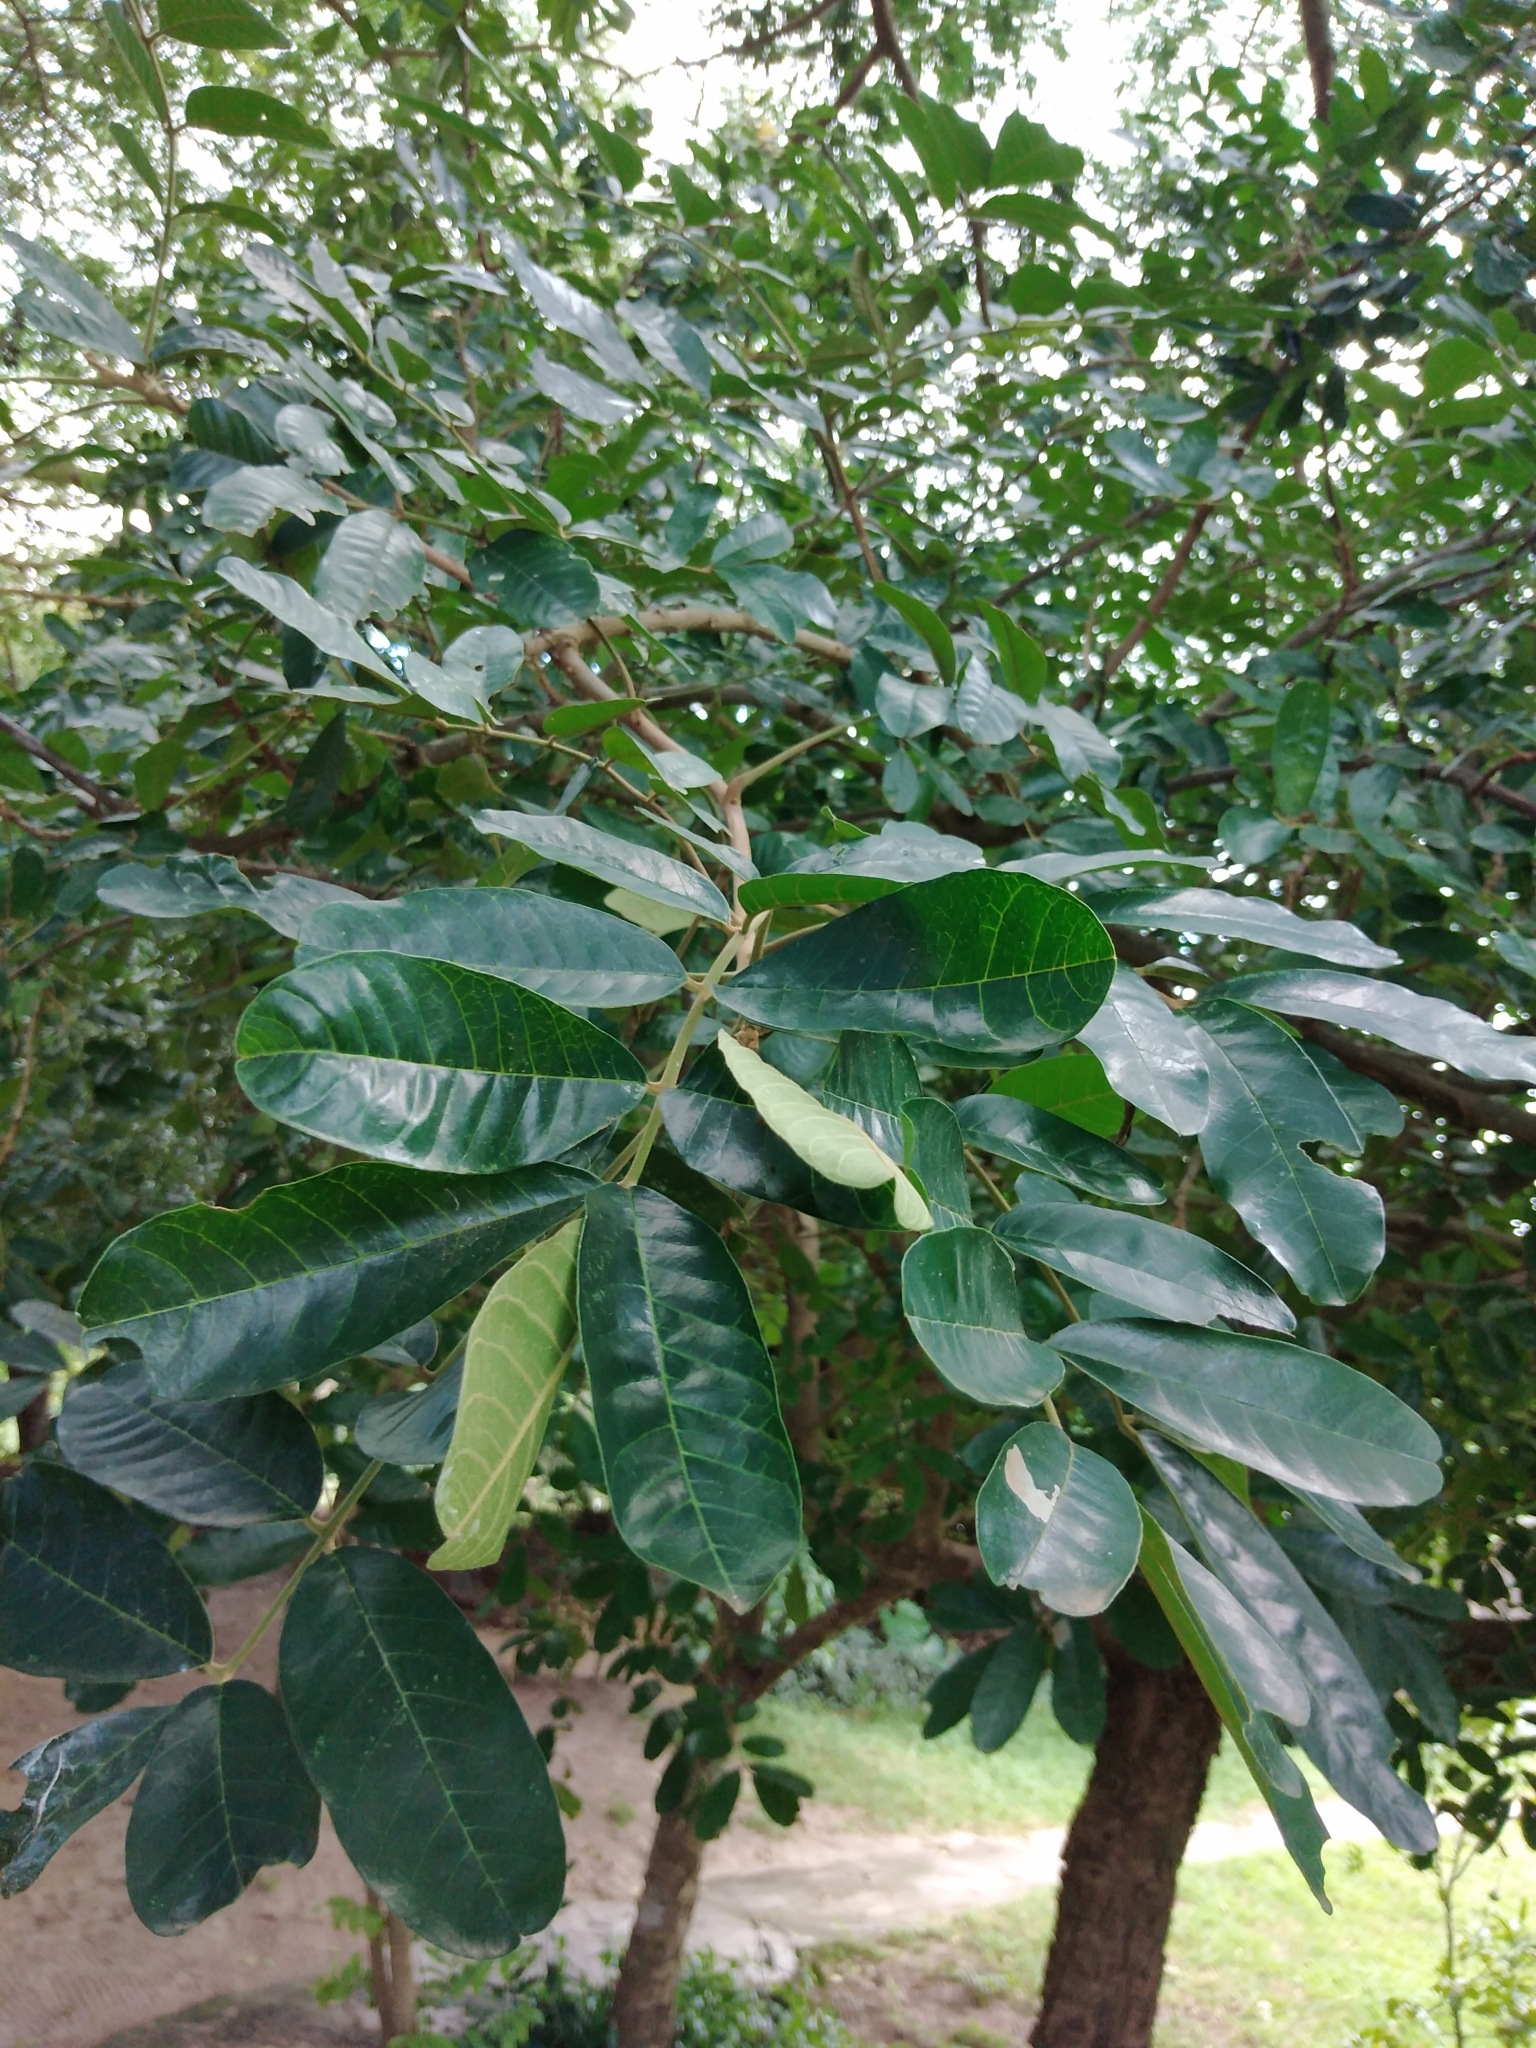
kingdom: Plantae
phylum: Tracheophyta
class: Magnoliopsida
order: Sapindales
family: Meliaceae
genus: Trichilia
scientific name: Trichilia emetica
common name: Christmas-bells
